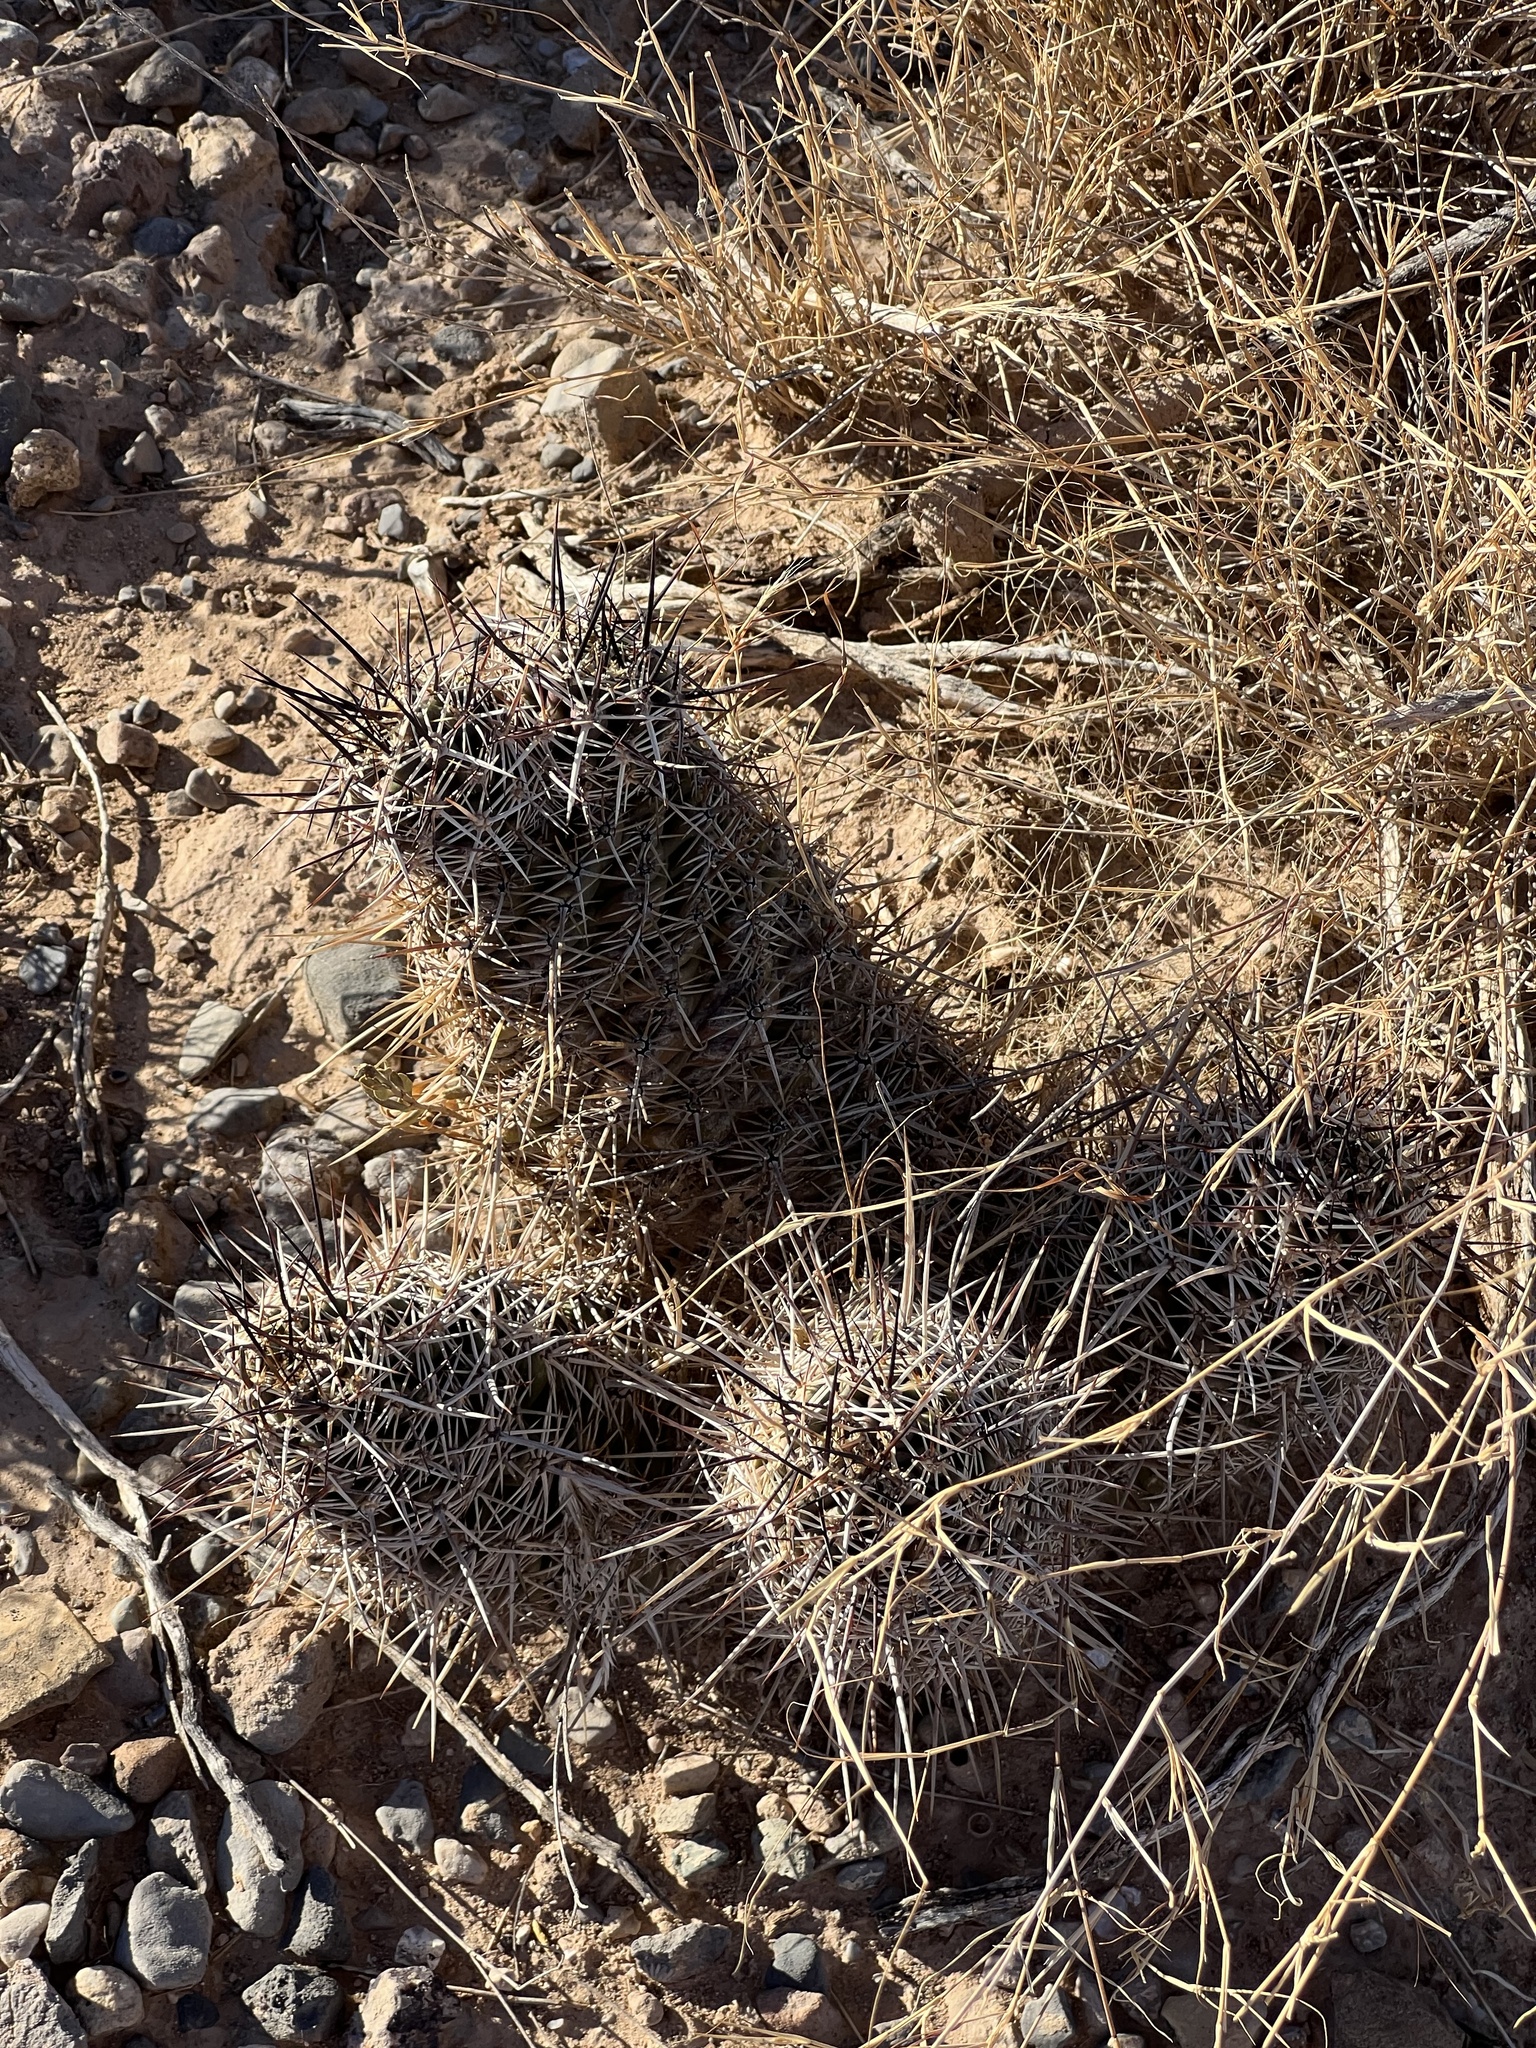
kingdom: Plantae
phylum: Tracheophyta
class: Magnoliopsida
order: Caryophyllales
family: Cactaceae
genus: Echinocereus
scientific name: Echinocereus fendleri
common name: Fendler's hedgehog cactus
